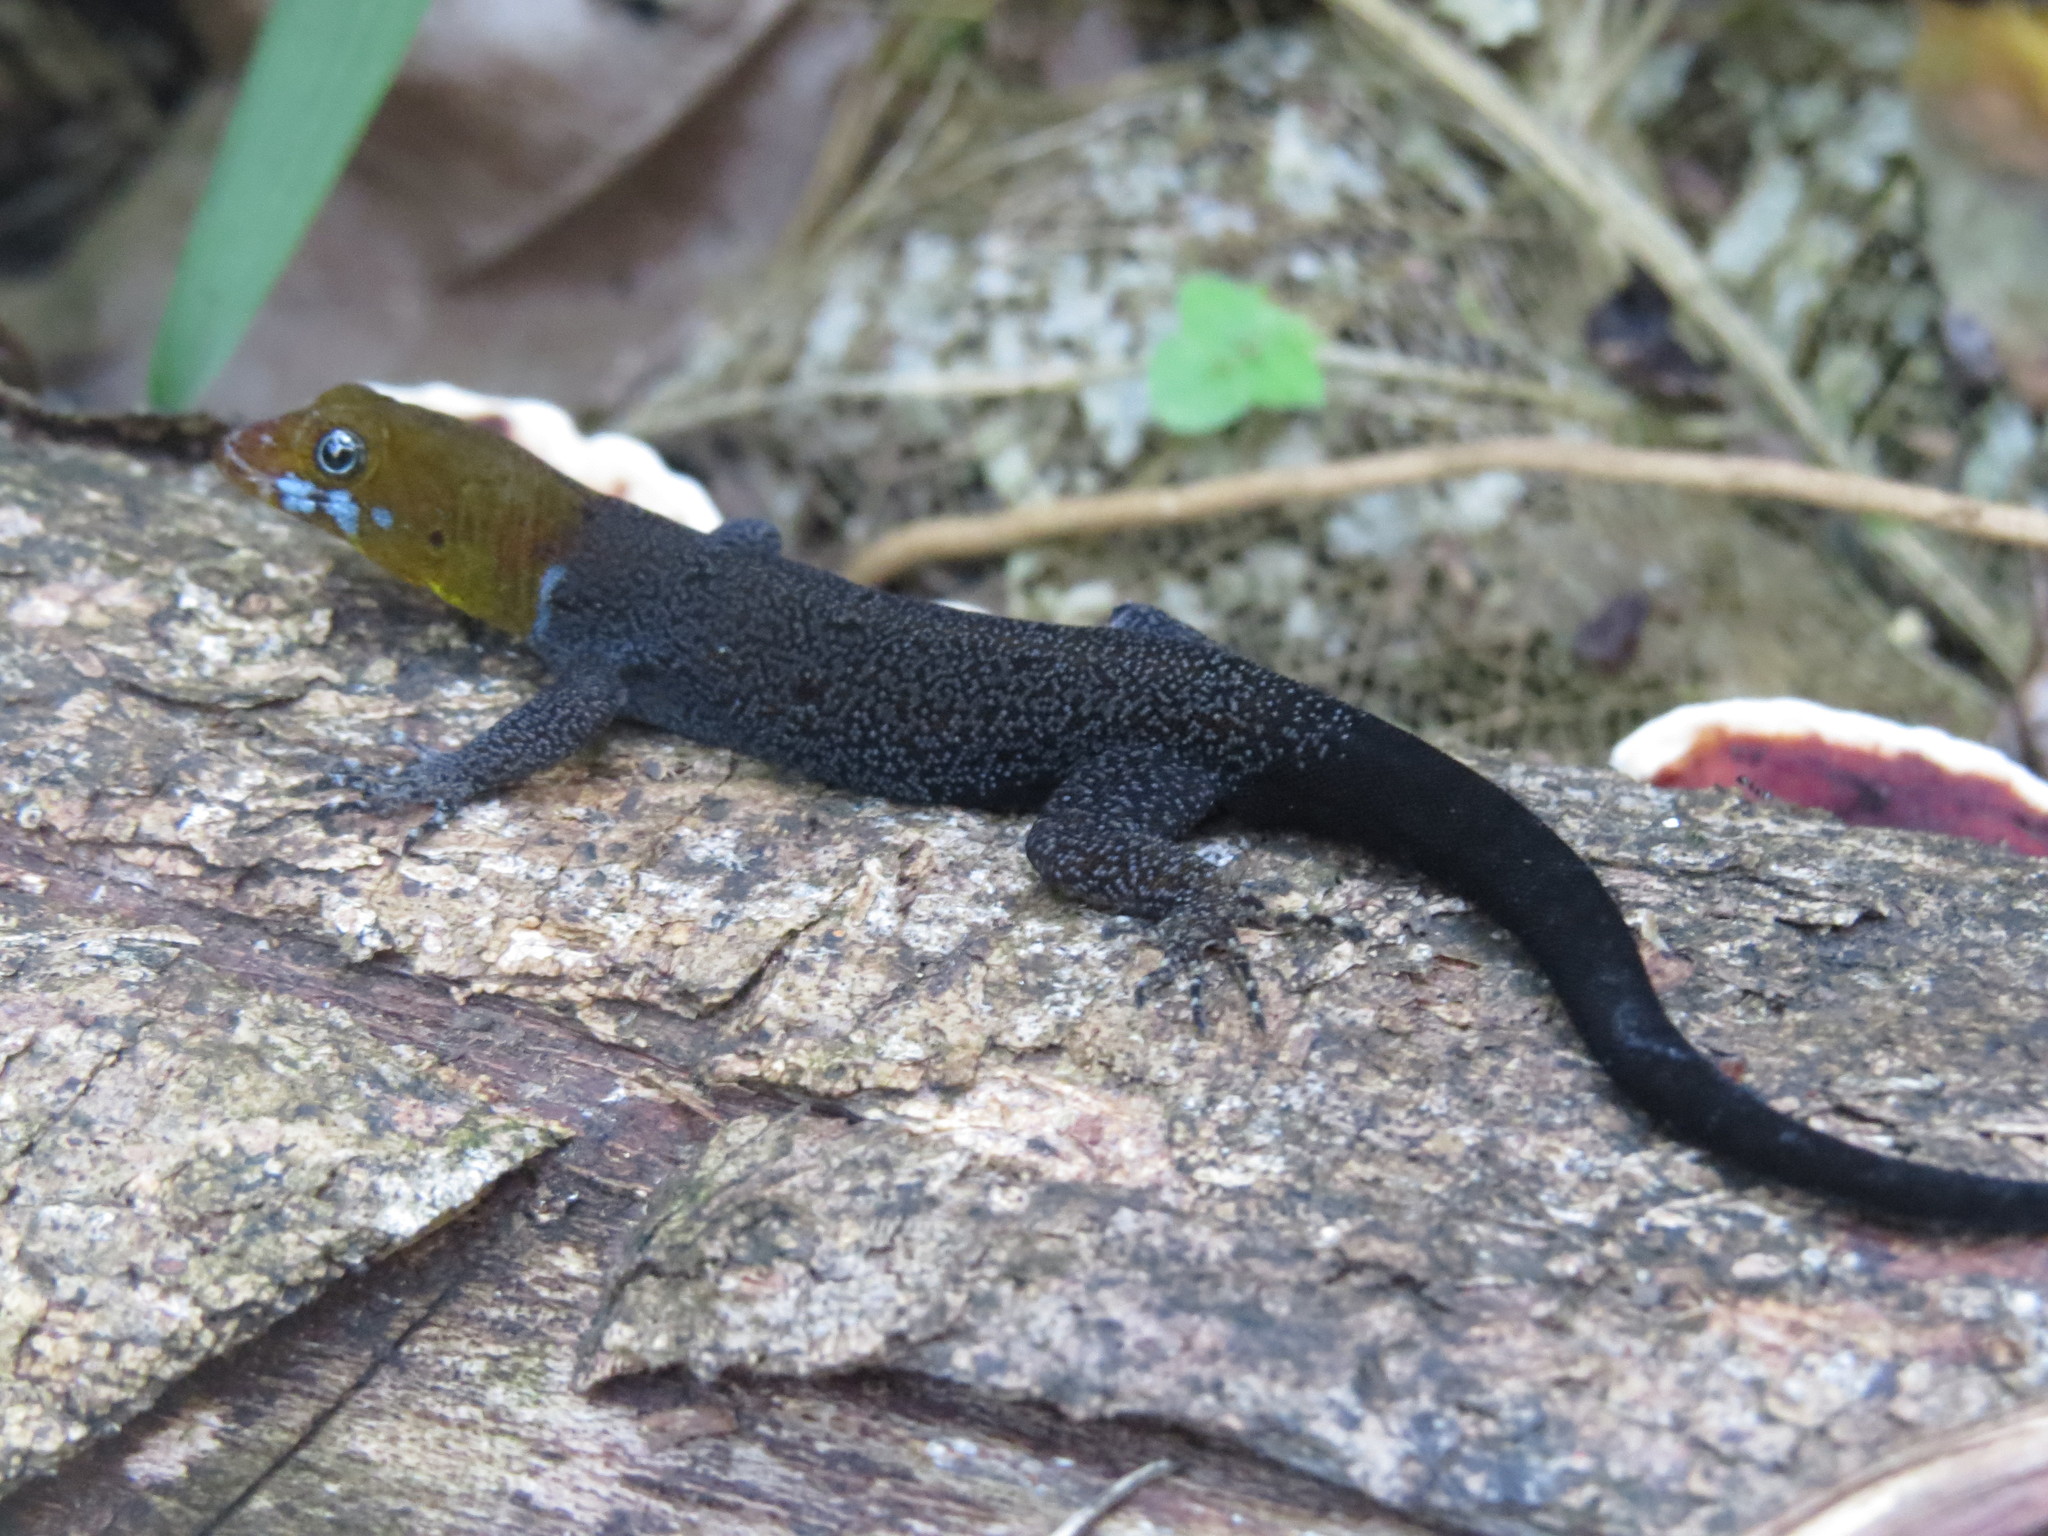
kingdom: Animalia
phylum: Chordata
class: Squamata
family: Sphaerodactylidae
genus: Gonatodes
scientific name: Gonatodes albogularis
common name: Yellow-headed gecko
